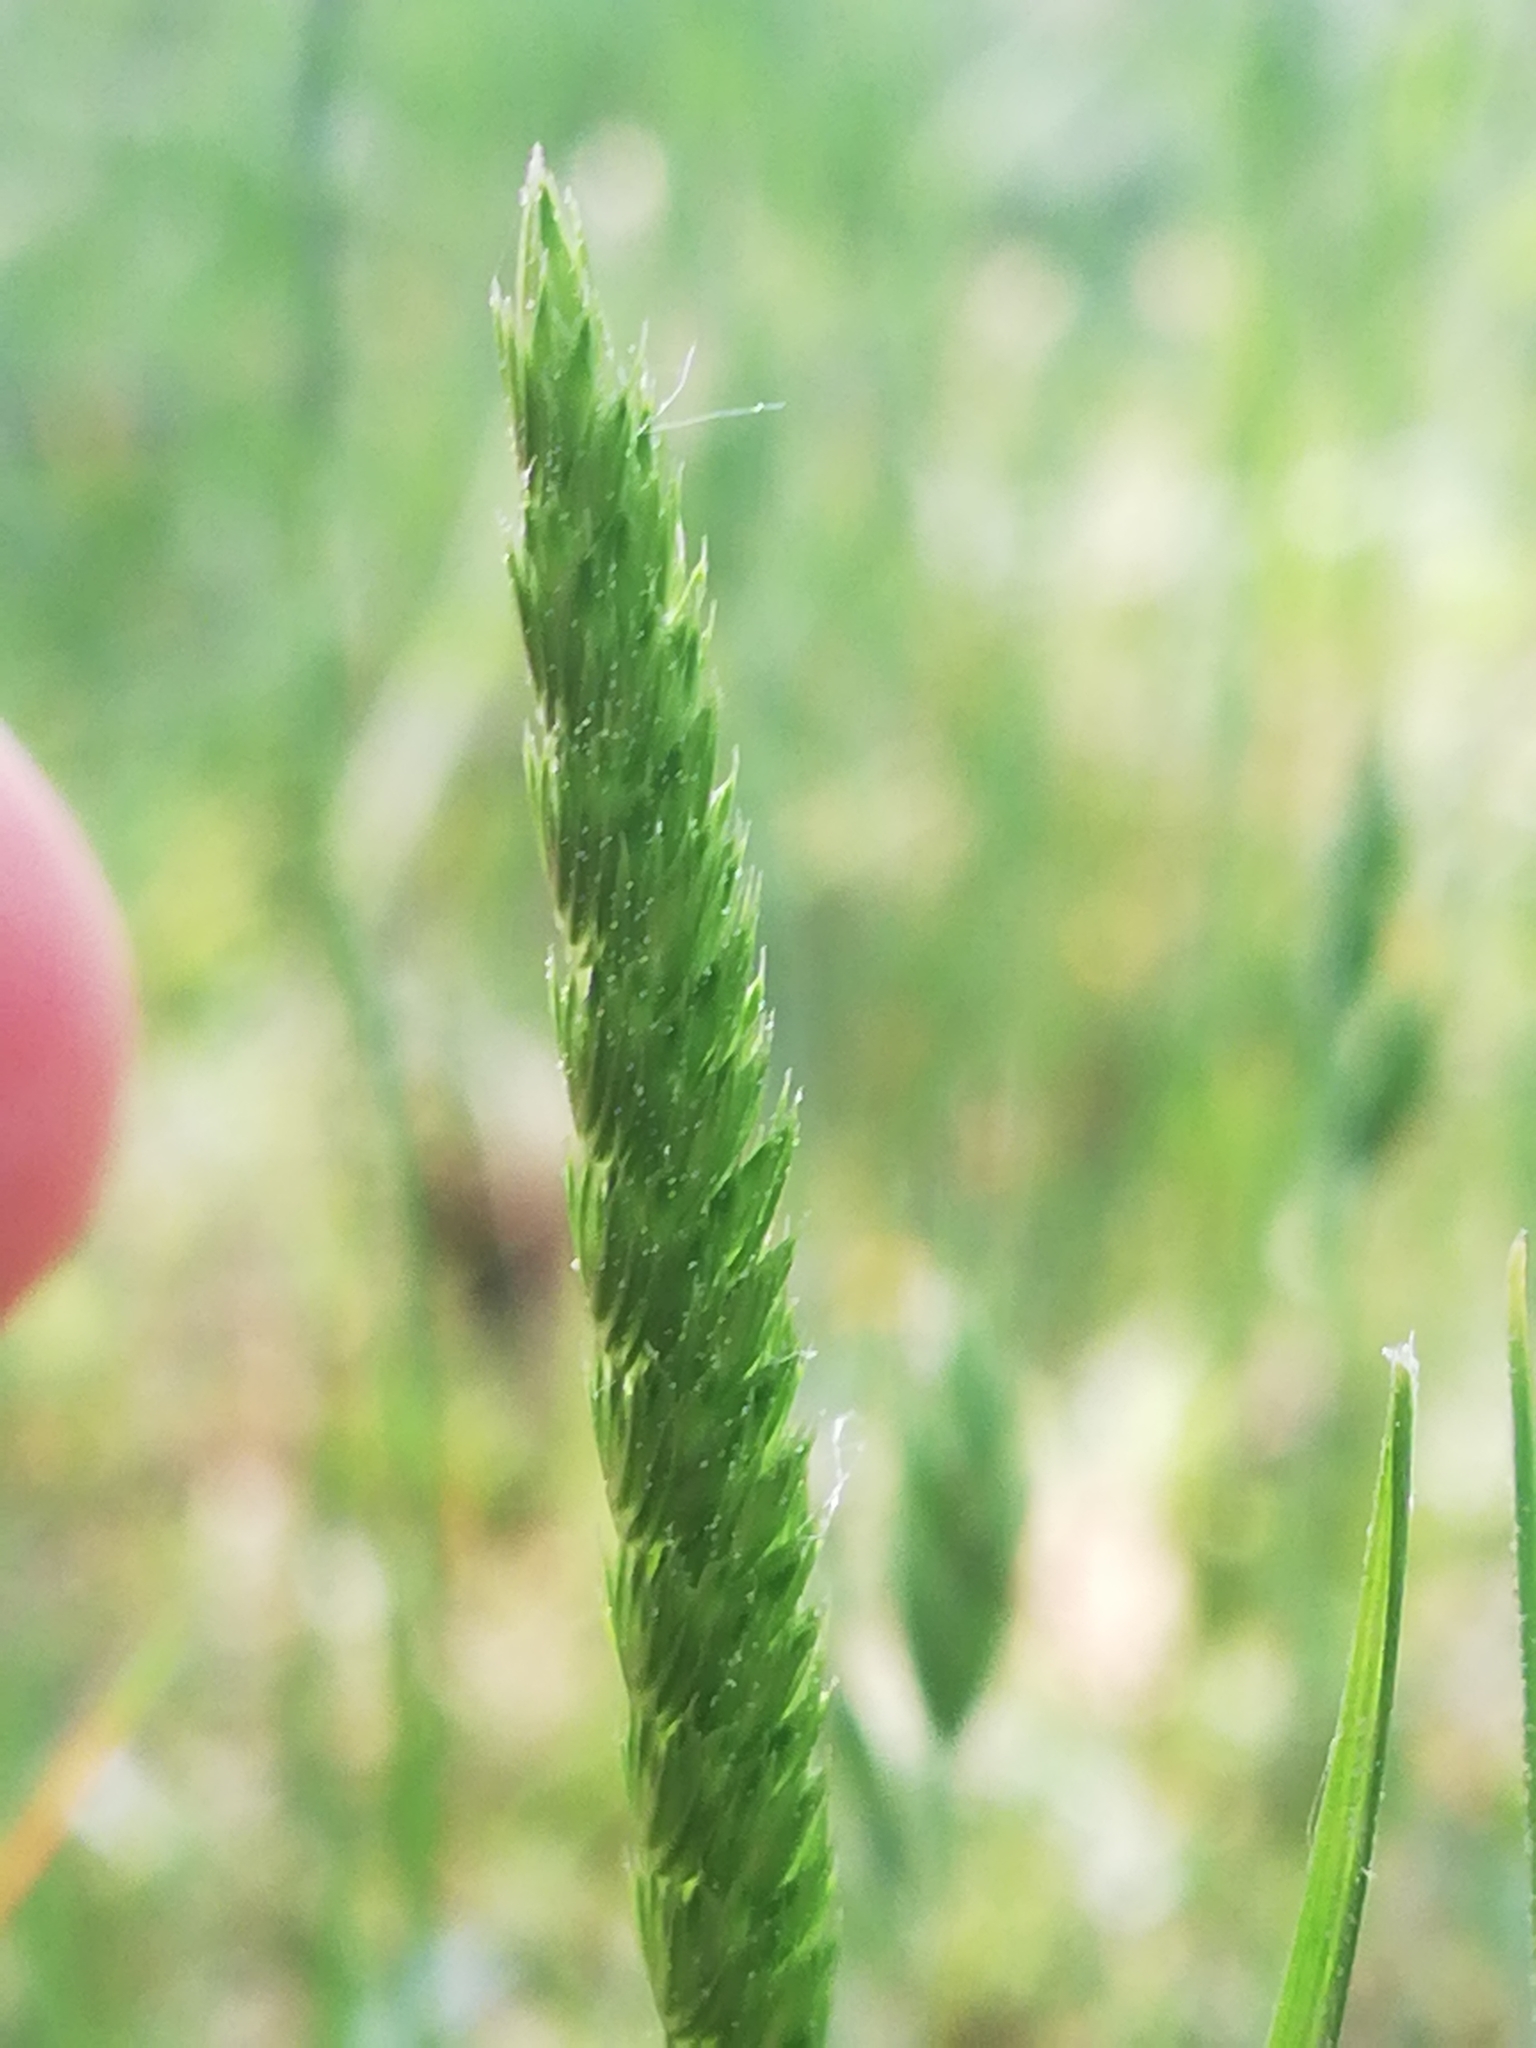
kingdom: Plantae
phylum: Tracheophyta
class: Liliopsida
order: Poales
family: Poaceae
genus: Cynosurus
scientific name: Cynosurus cristatus
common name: Crested dog's-tail
